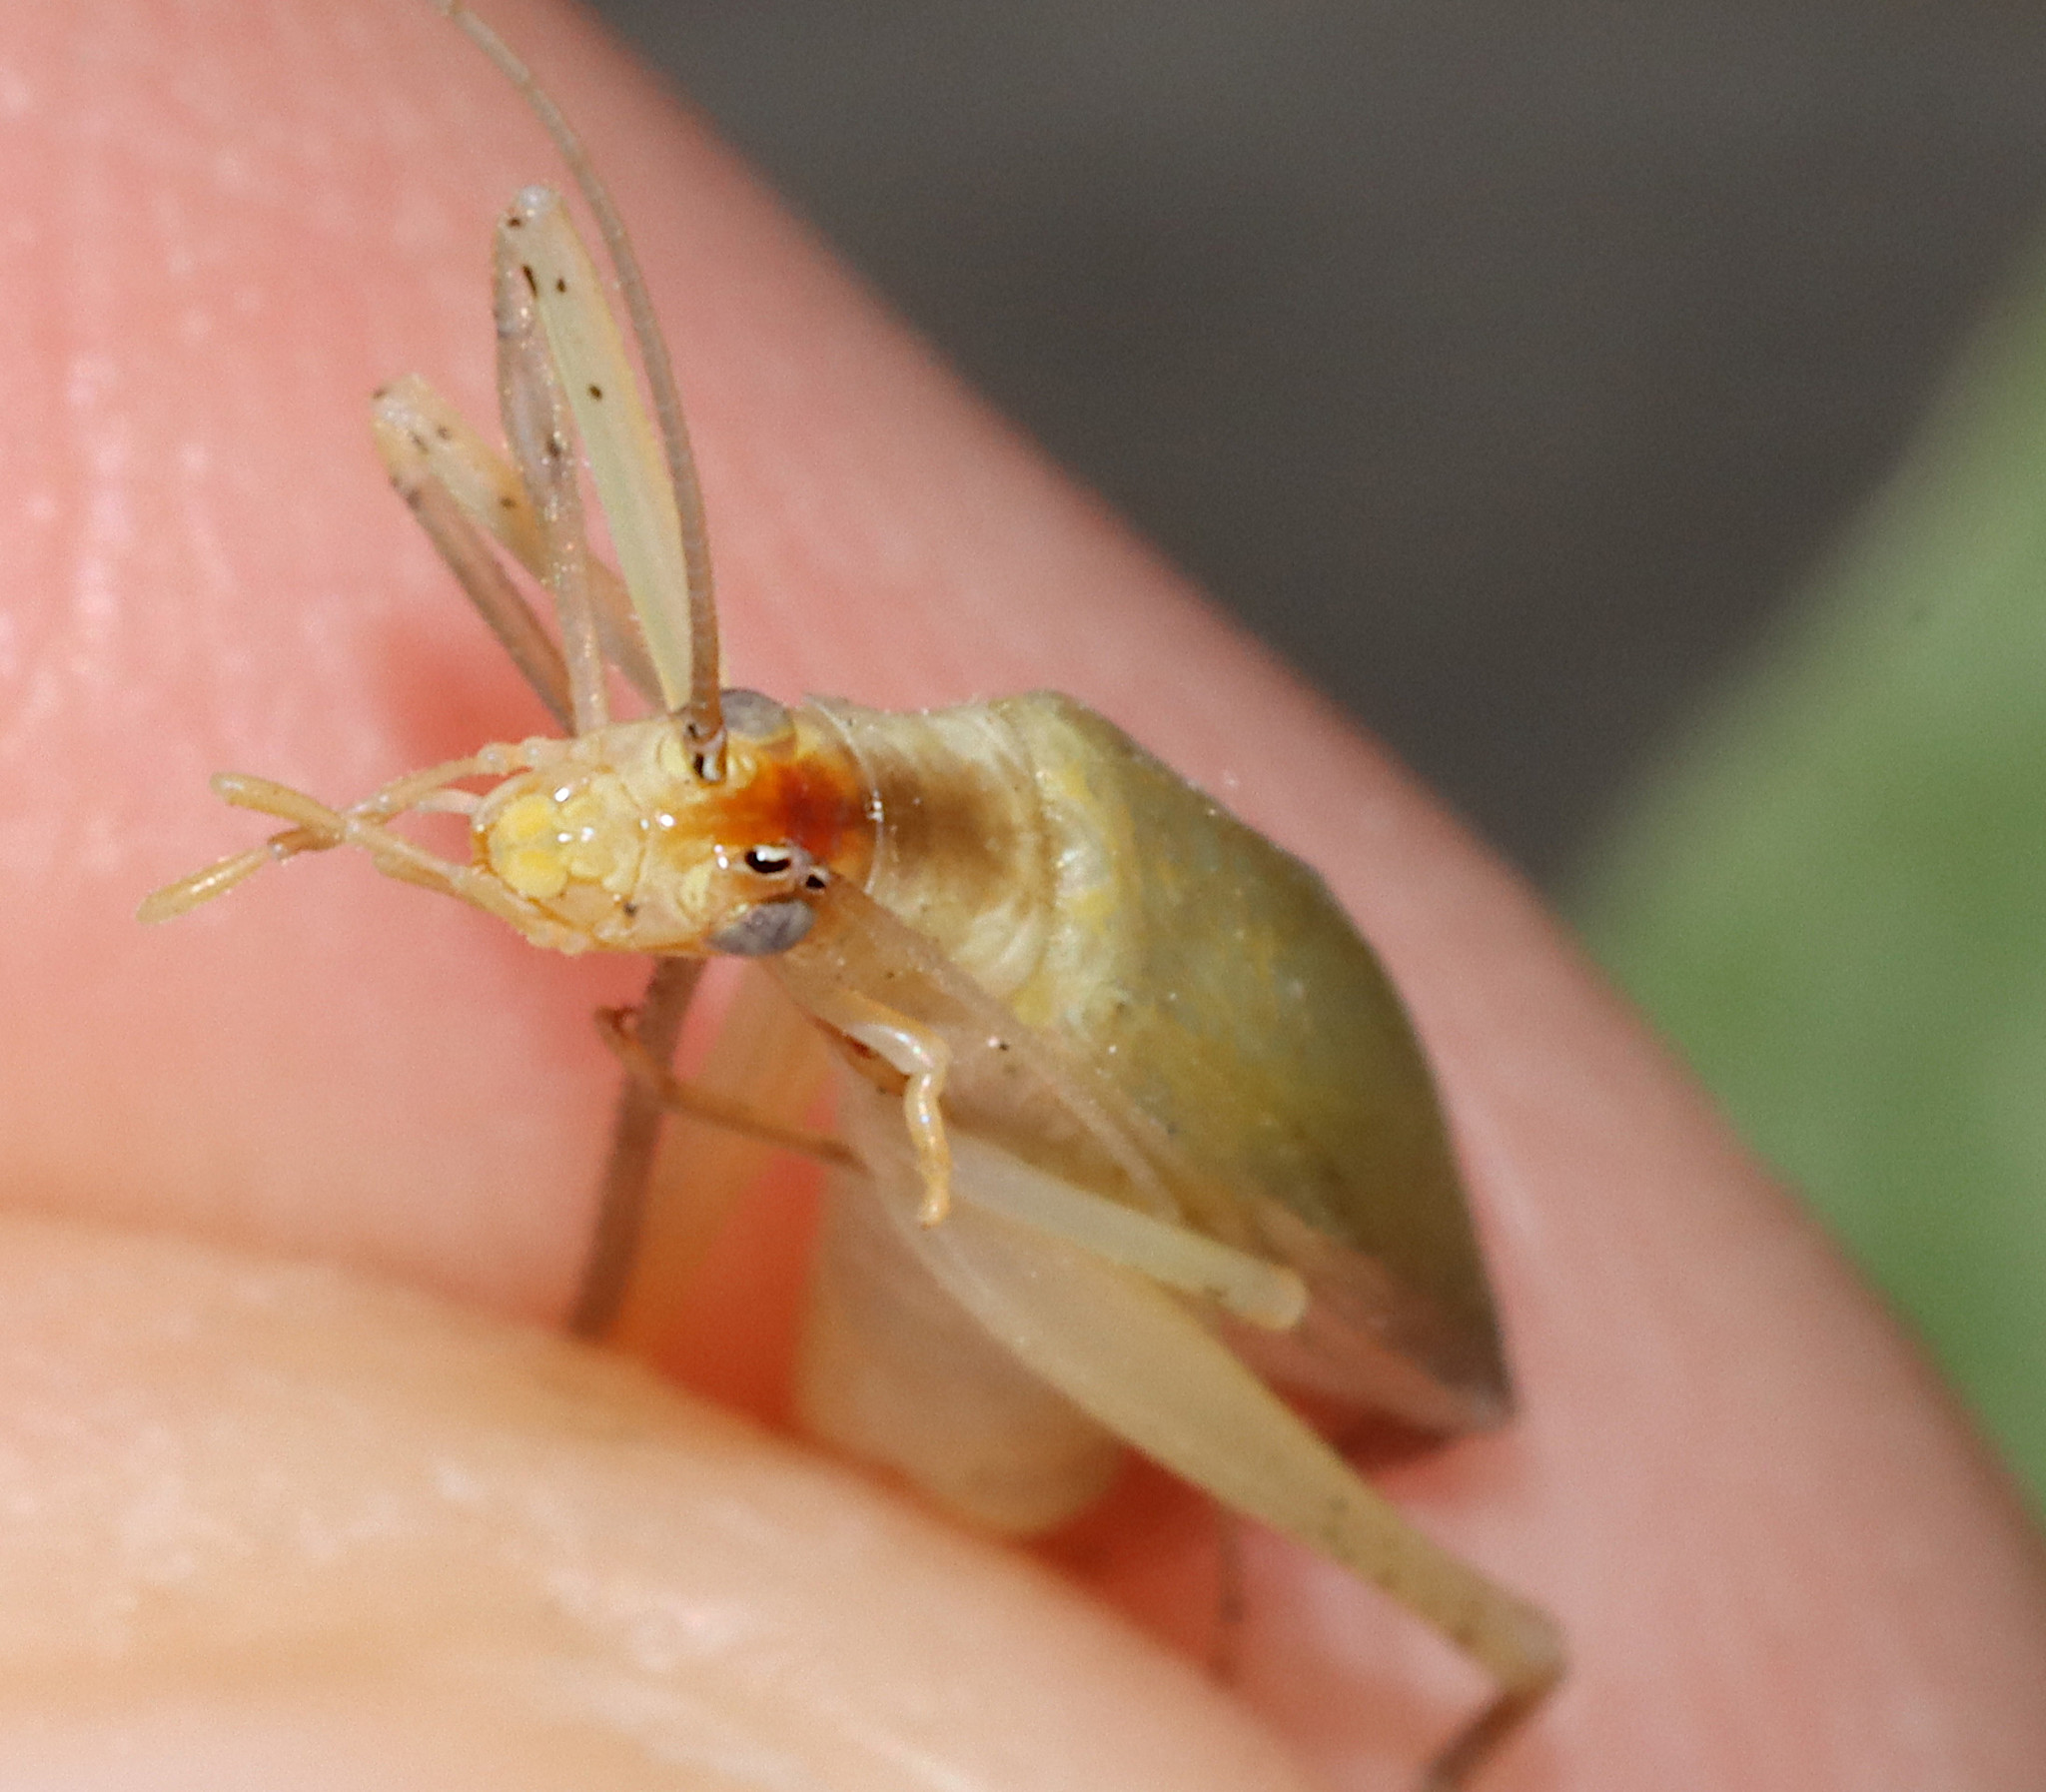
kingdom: Animalia
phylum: Arthropoda
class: Insecta
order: Orthoptera
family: Gryllidae
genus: Oecanthus
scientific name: Oecanthus niveus
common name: Narrow-winged tree cricket
